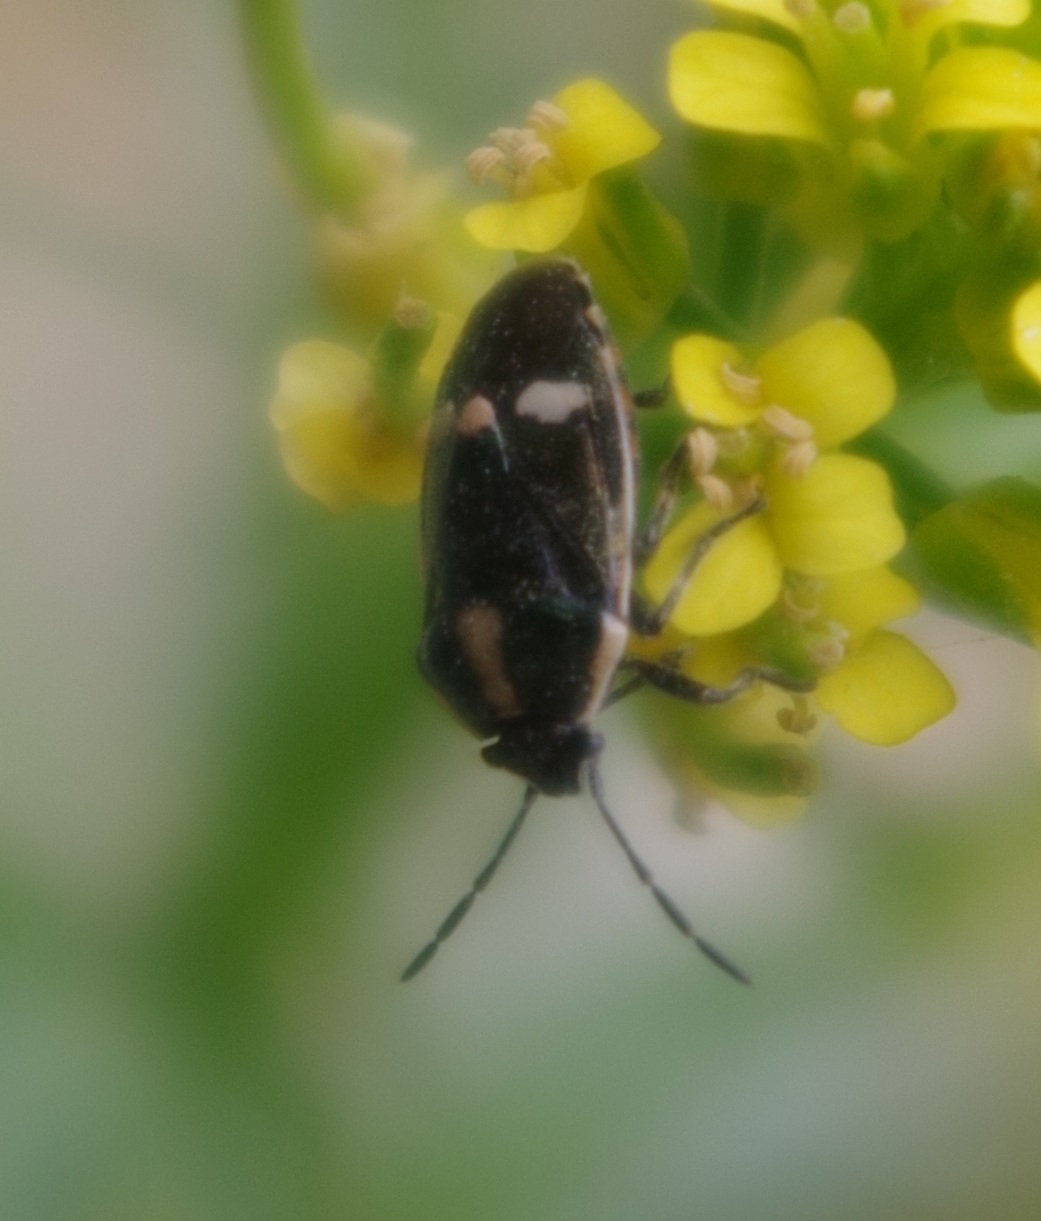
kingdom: Animalia
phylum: Arthropoda
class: Insecta
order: Hemiptera
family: Pentatomidae
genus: Eurydema
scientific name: Eurydema oleracea
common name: Cabbage bug
